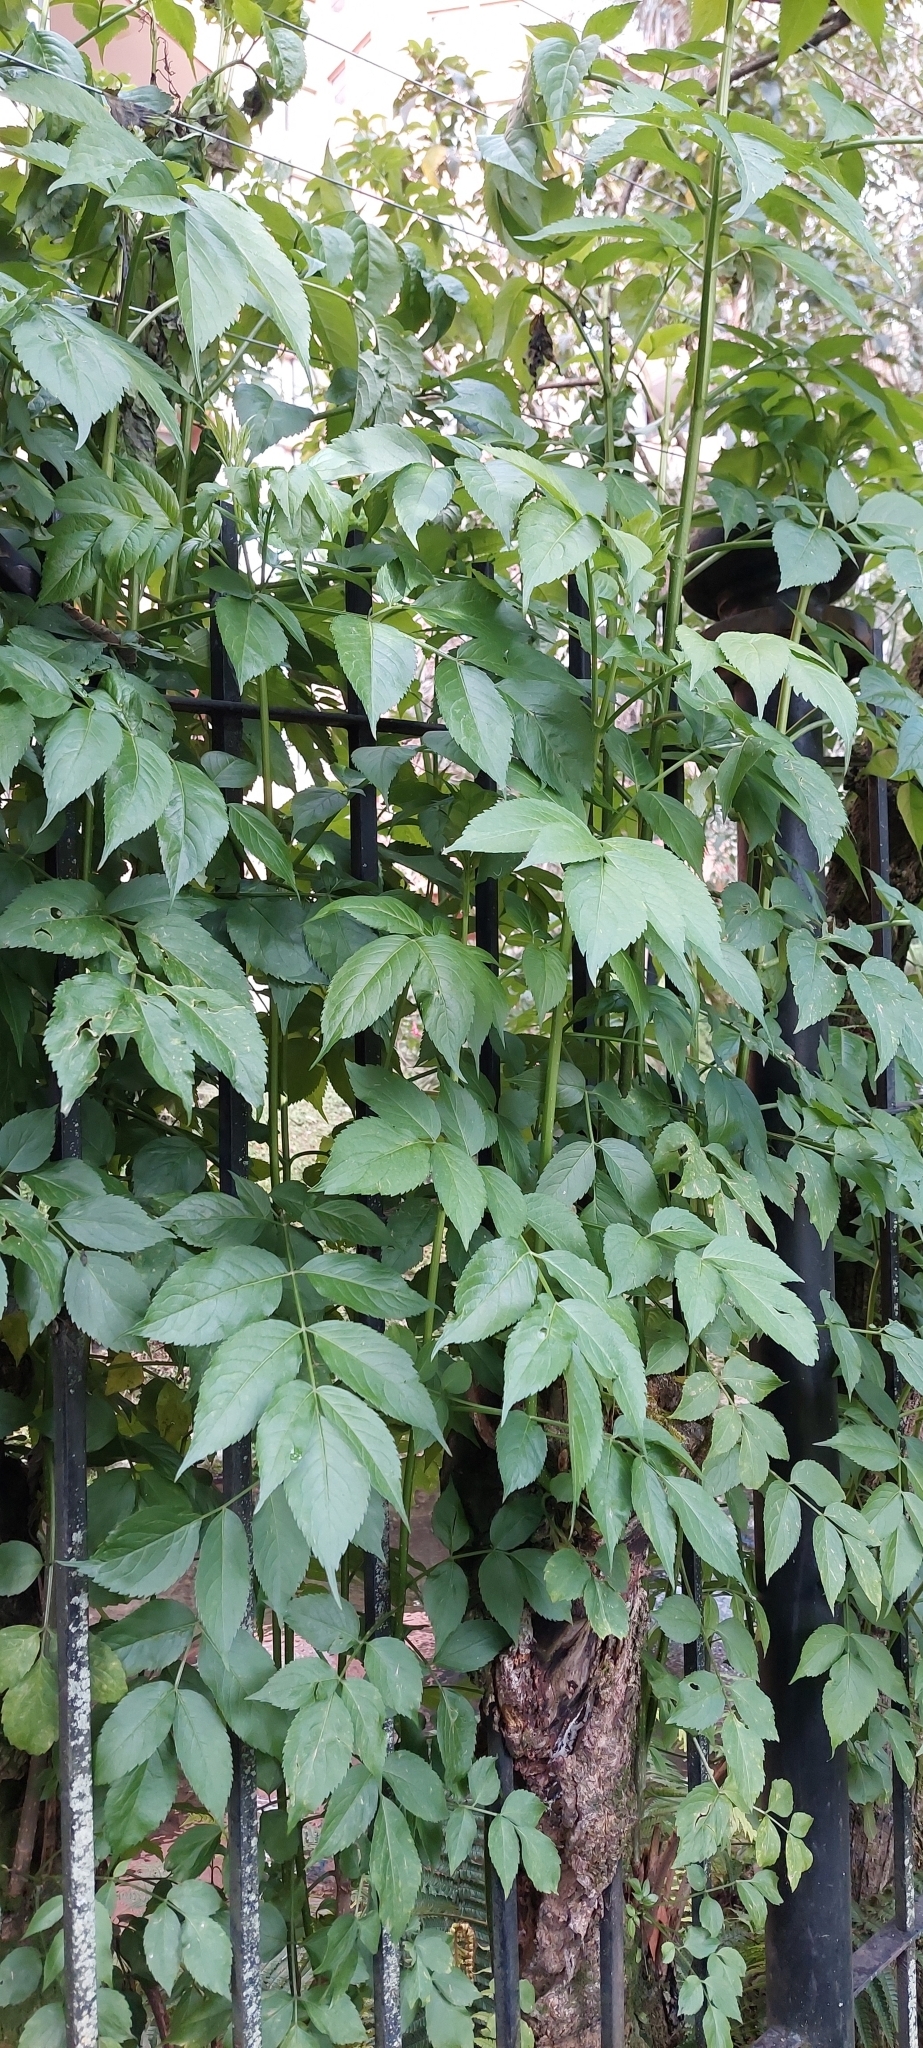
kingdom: Plantae
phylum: Tracheophyta
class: Magnoliopsida
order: Dipsacales
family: Viburnaceae
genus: Sambucus
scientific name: Sambucus nigra
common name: Elder
